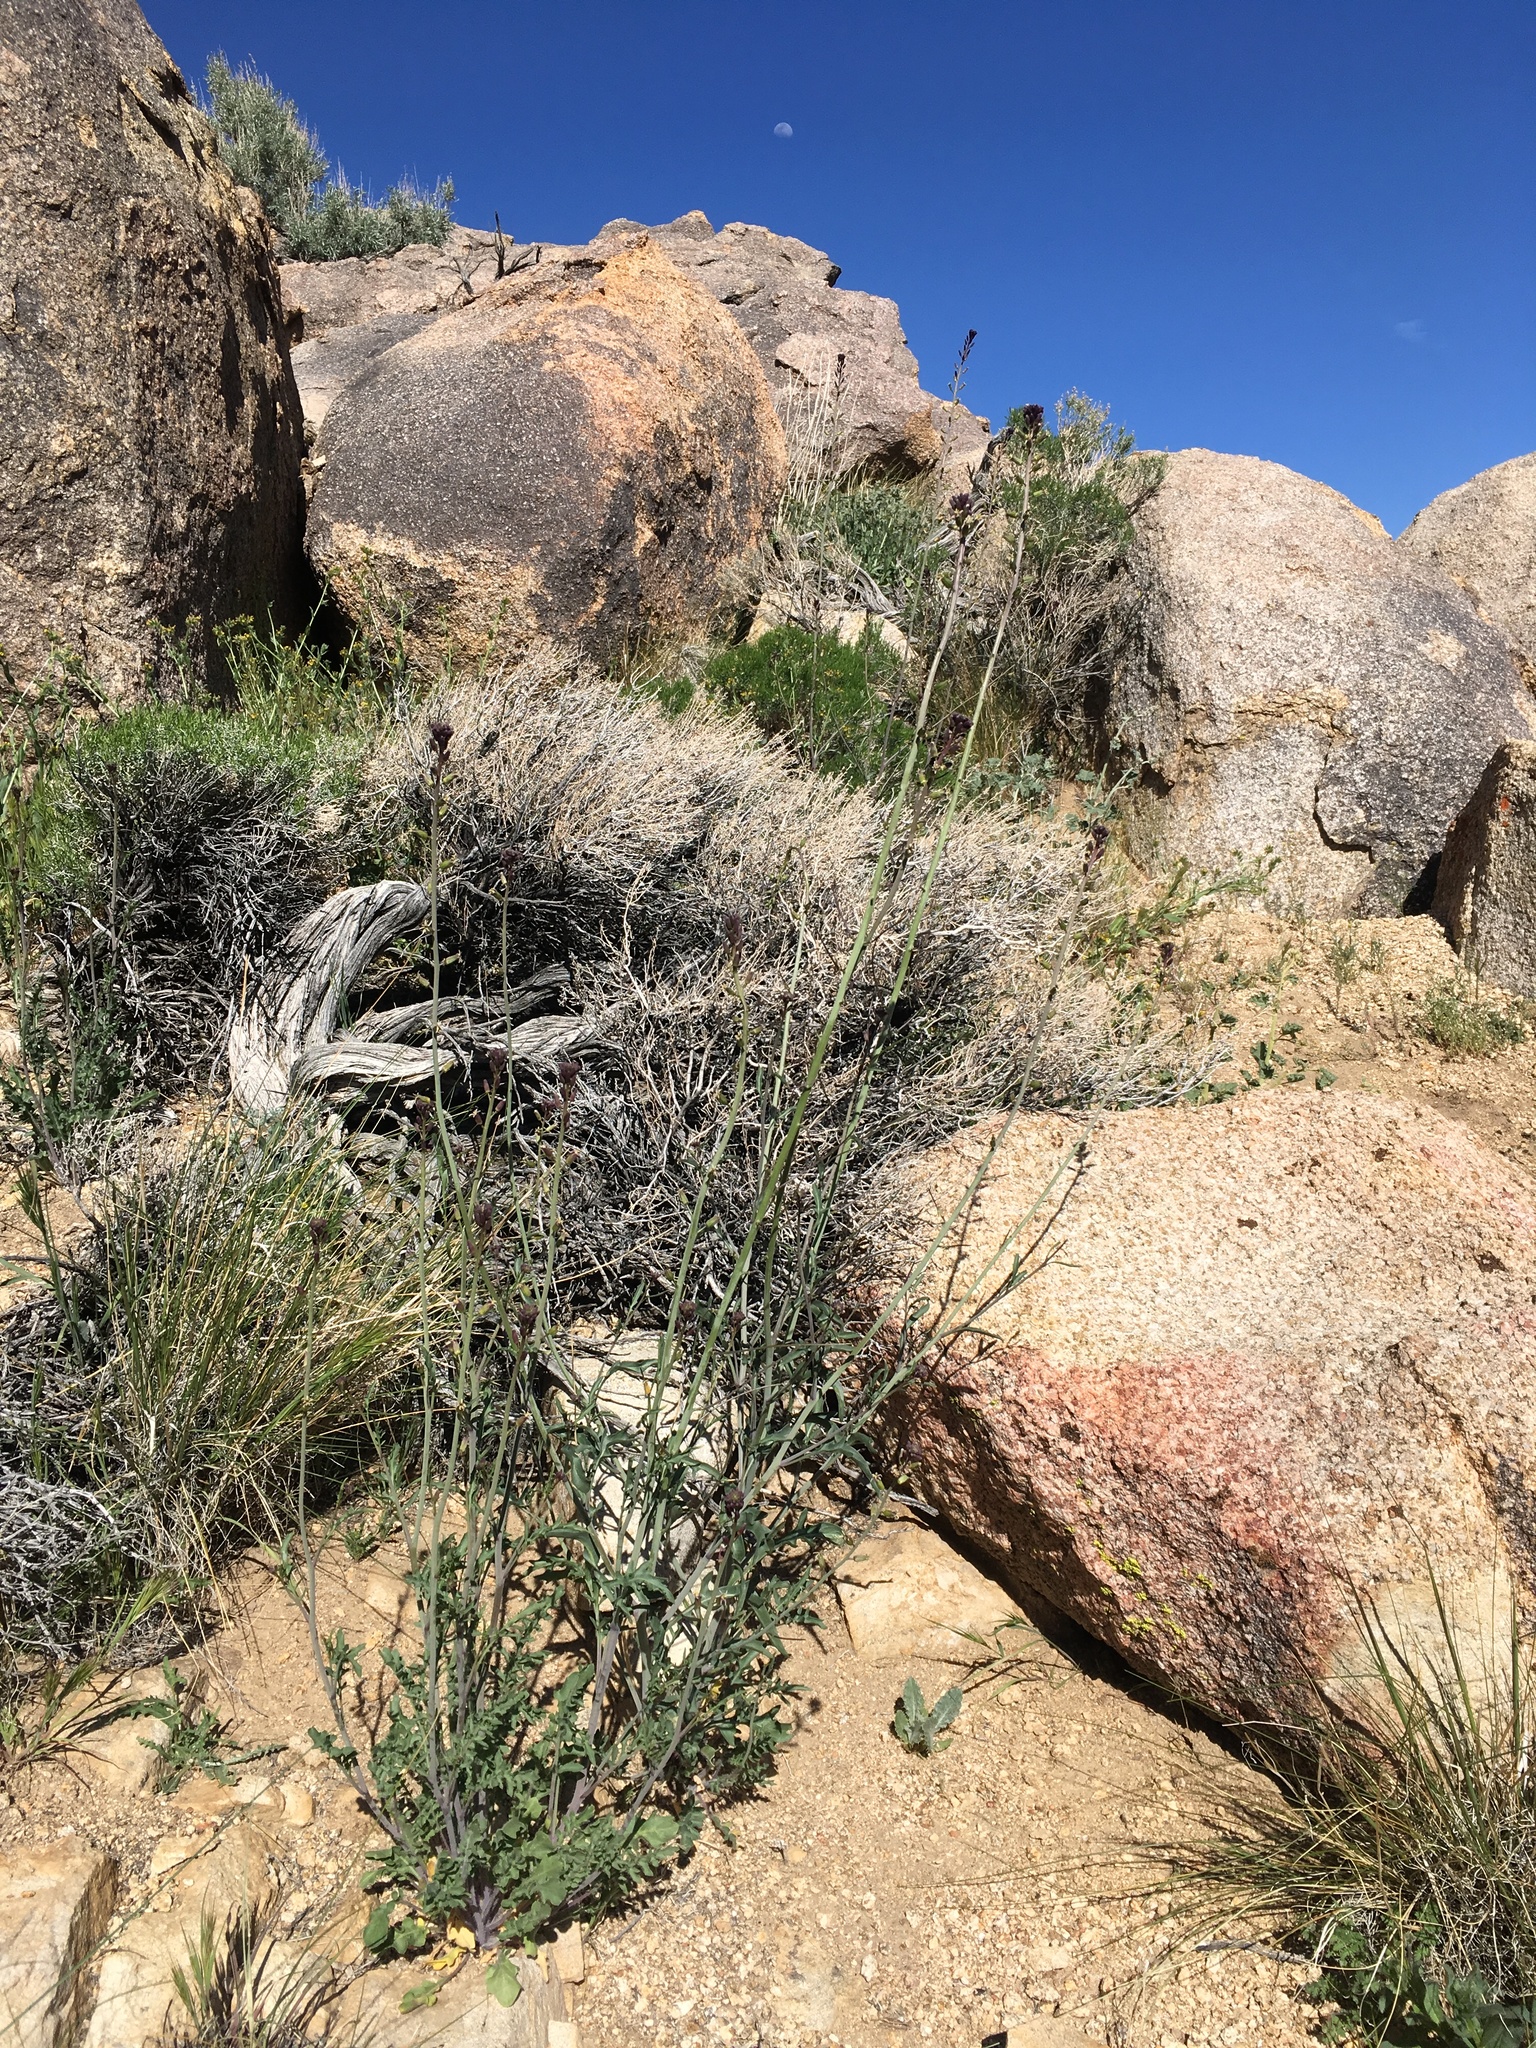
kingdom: Plantae
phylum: Tracheophyta
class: Magnoliopsida
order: Brassicales
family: Brassicaceae
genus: Streptanthus
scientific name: Streptanthus pilosus
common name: Chocolate drops
